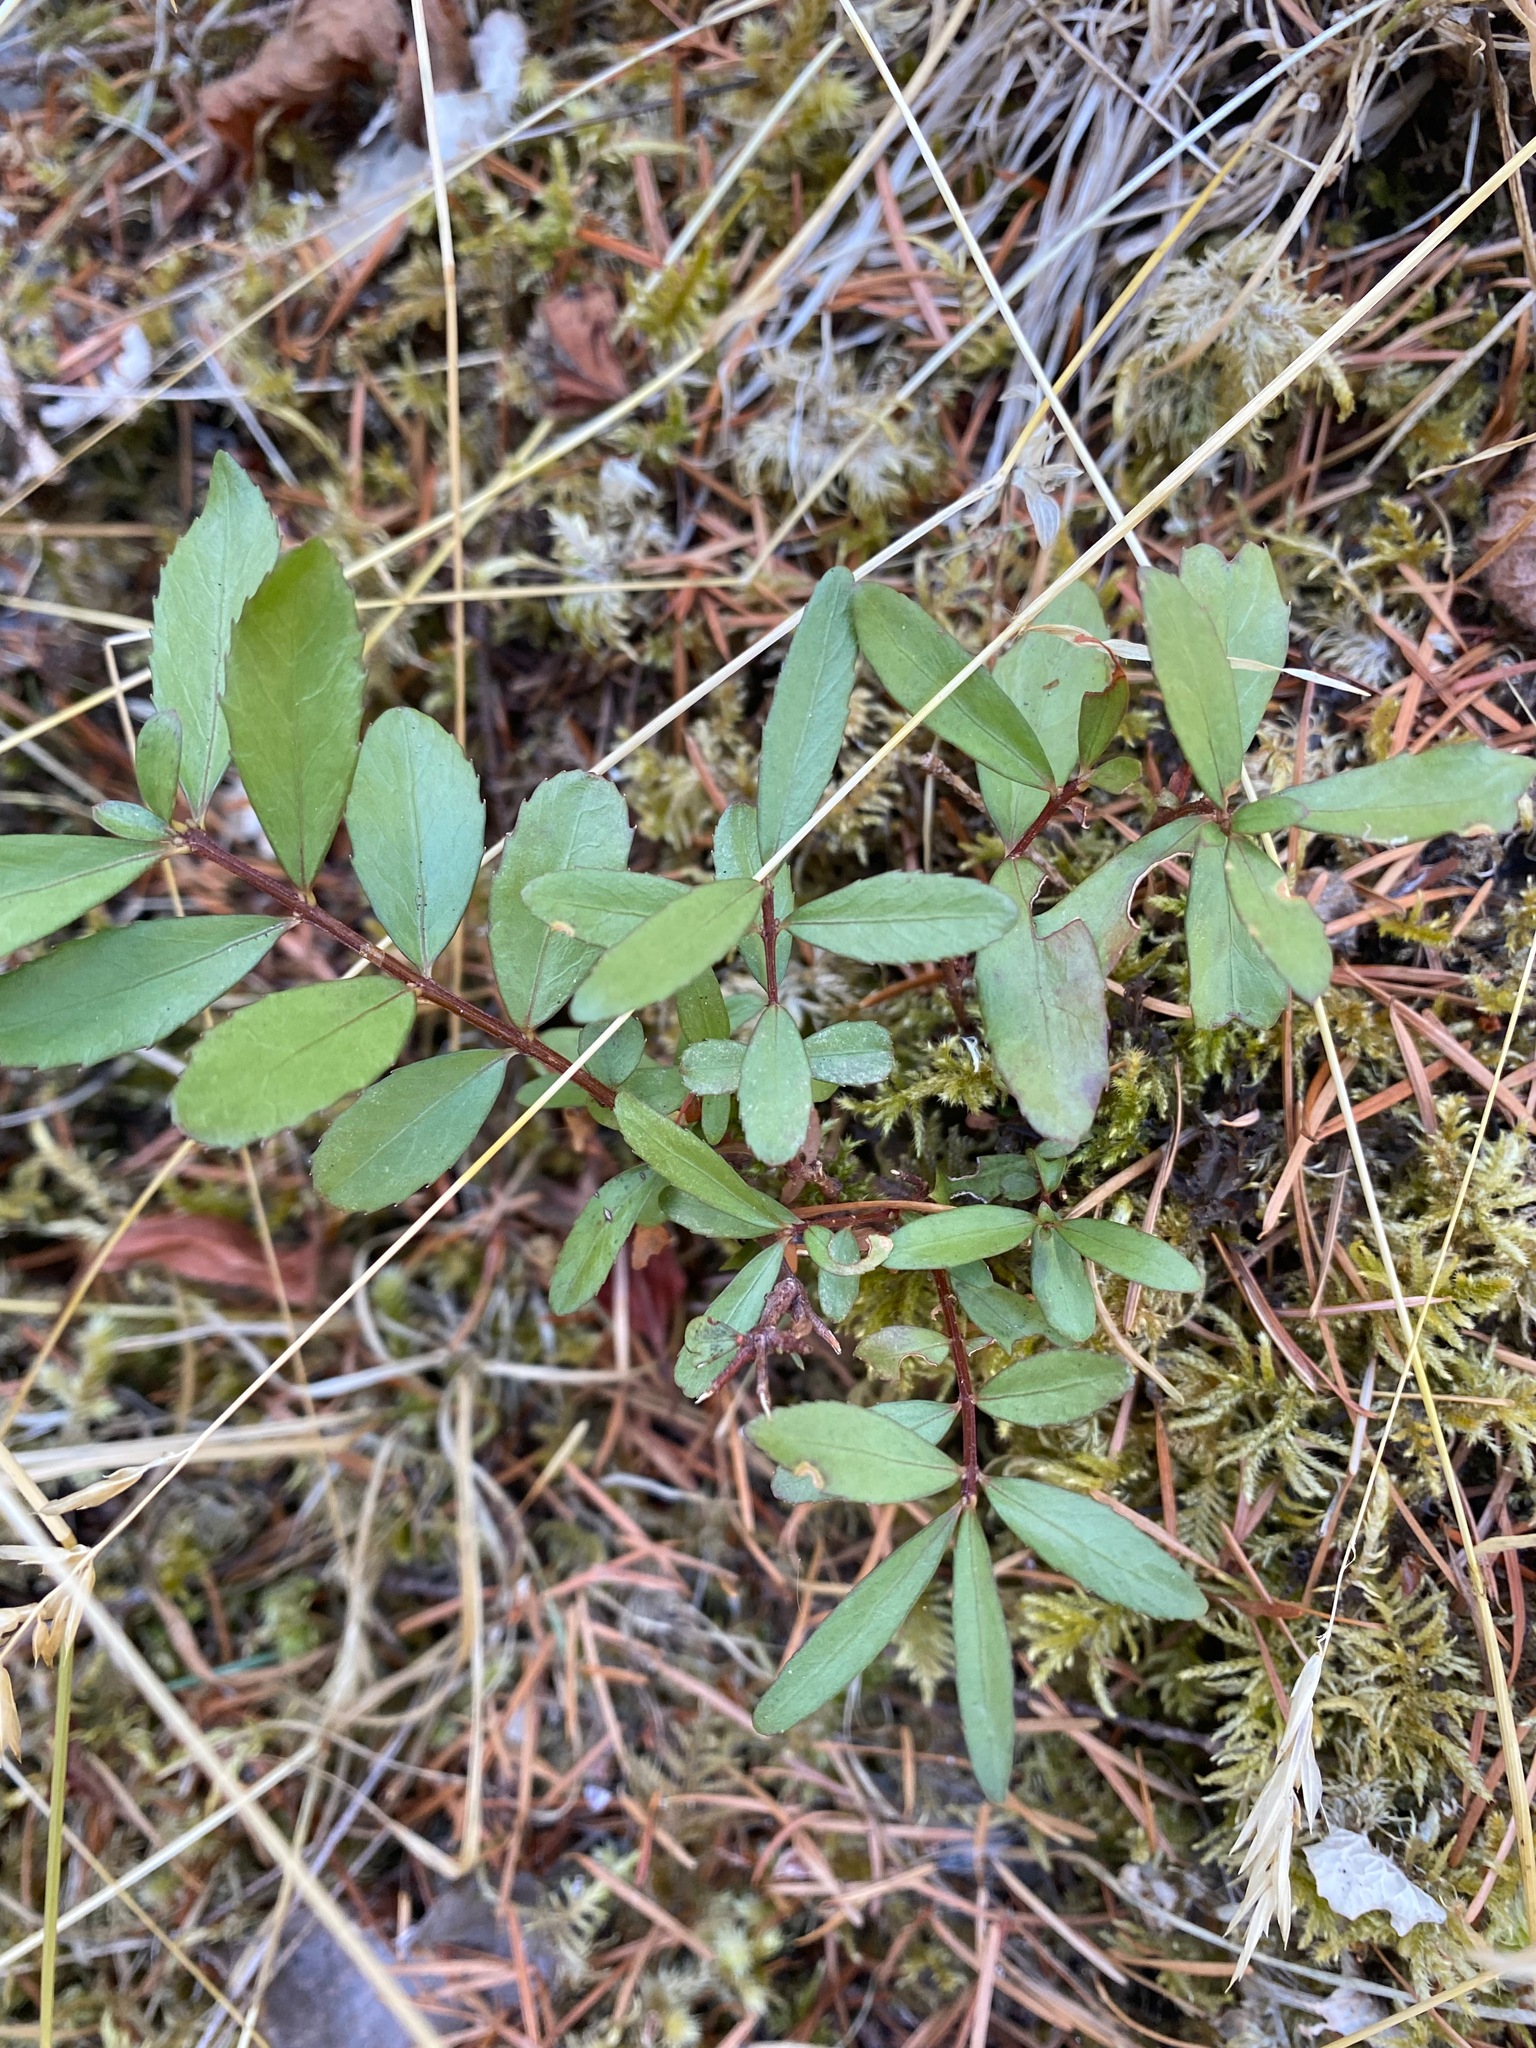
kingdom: Plantae
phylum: Tracheophyta
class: Magnoliopsida
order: Celastrales
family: Celastraceae
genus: Paxistima
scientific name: Paxistima myrsinites
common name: Mountain-lover
